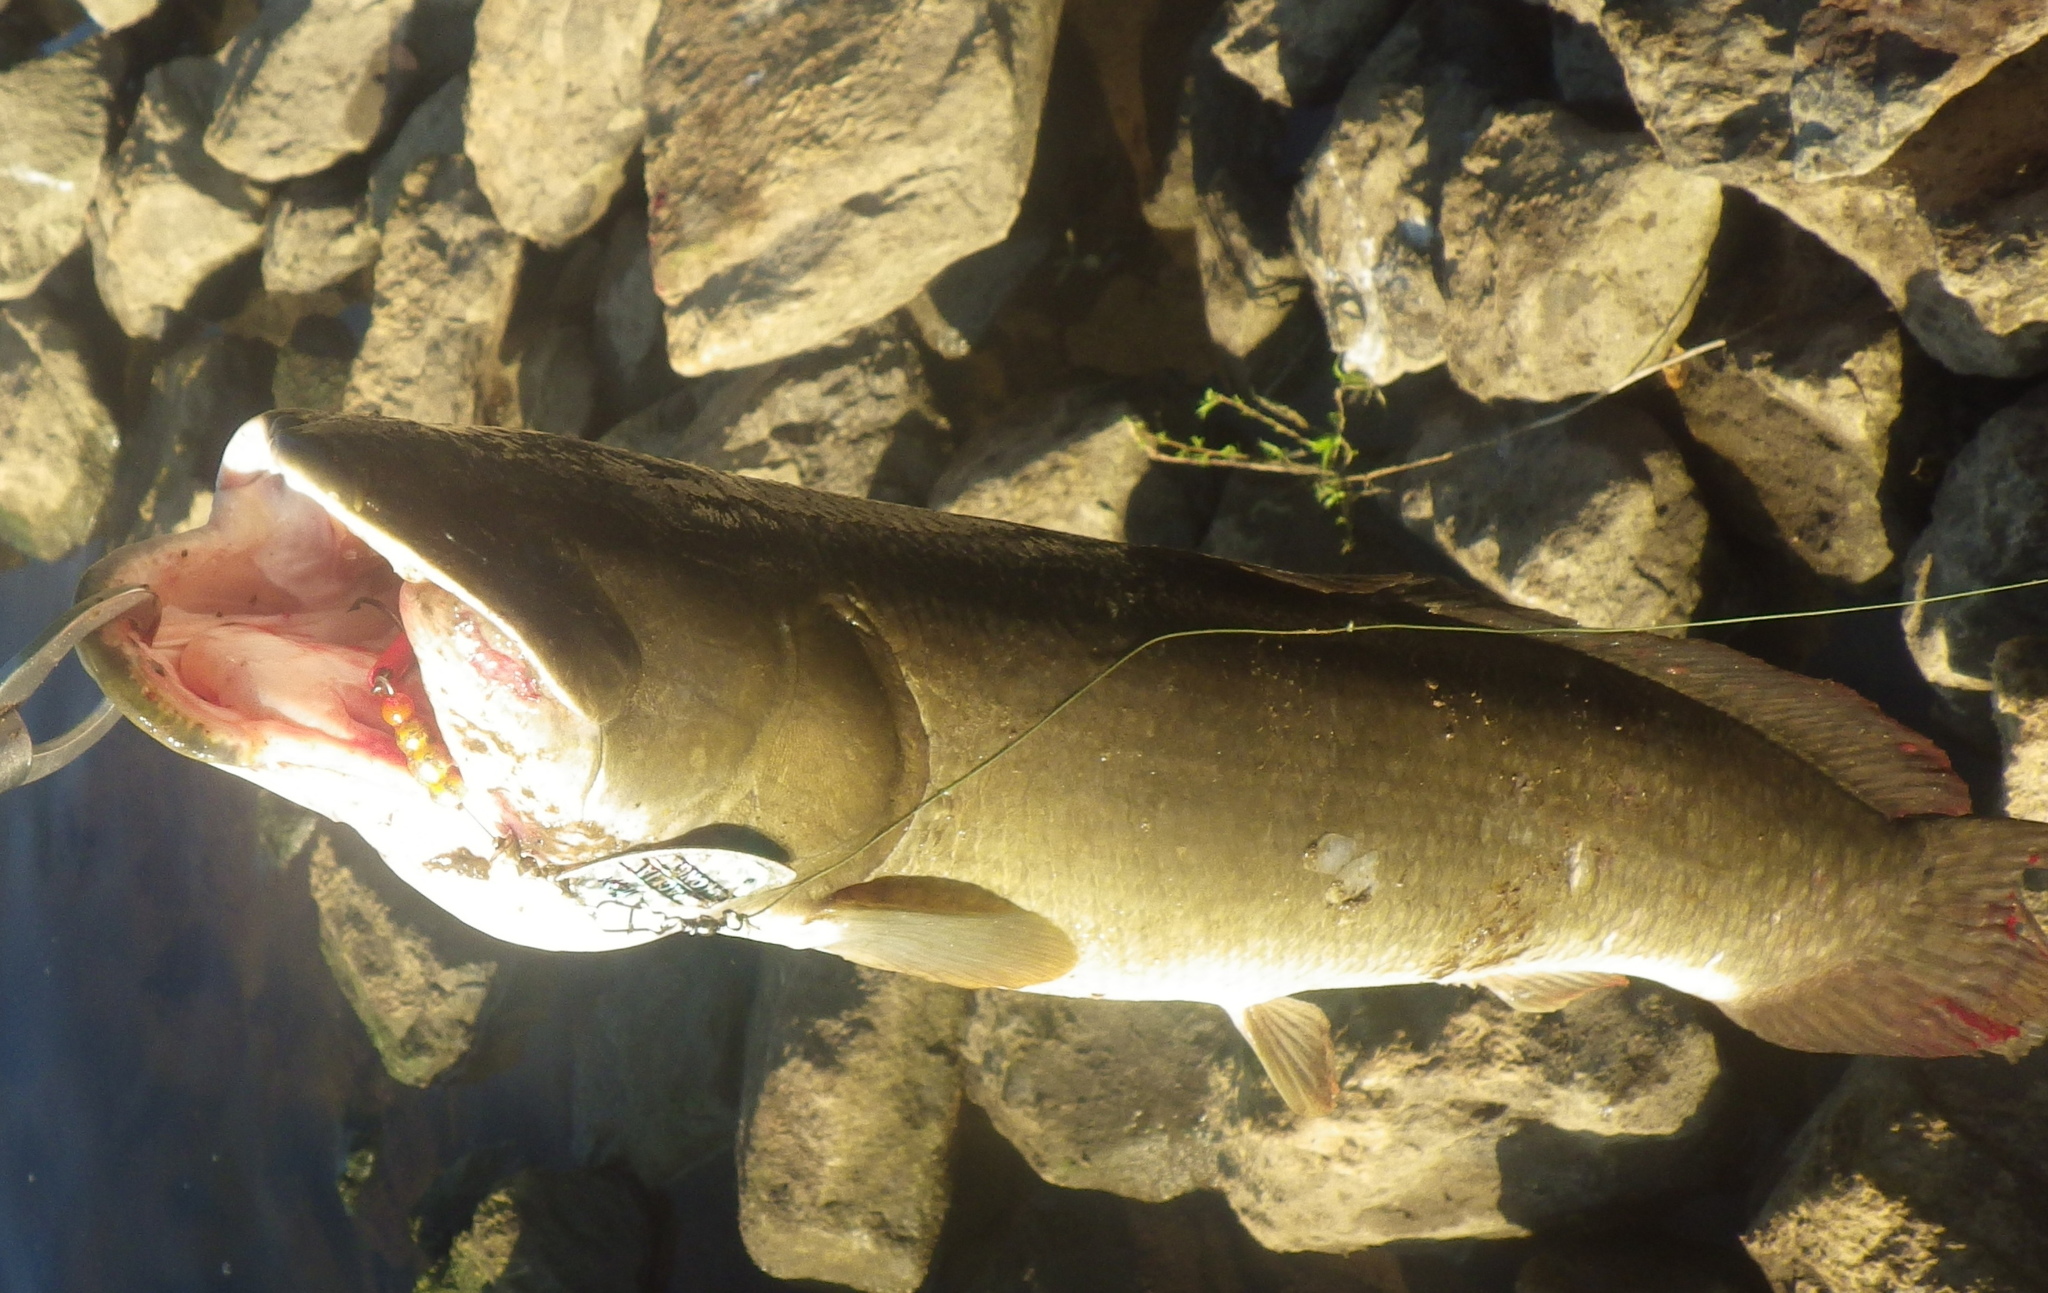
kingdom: Animalia
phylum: Chordata
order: Amiiformes
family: Amiidae
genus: Amia
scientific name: Amia calva
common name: Bowfin
